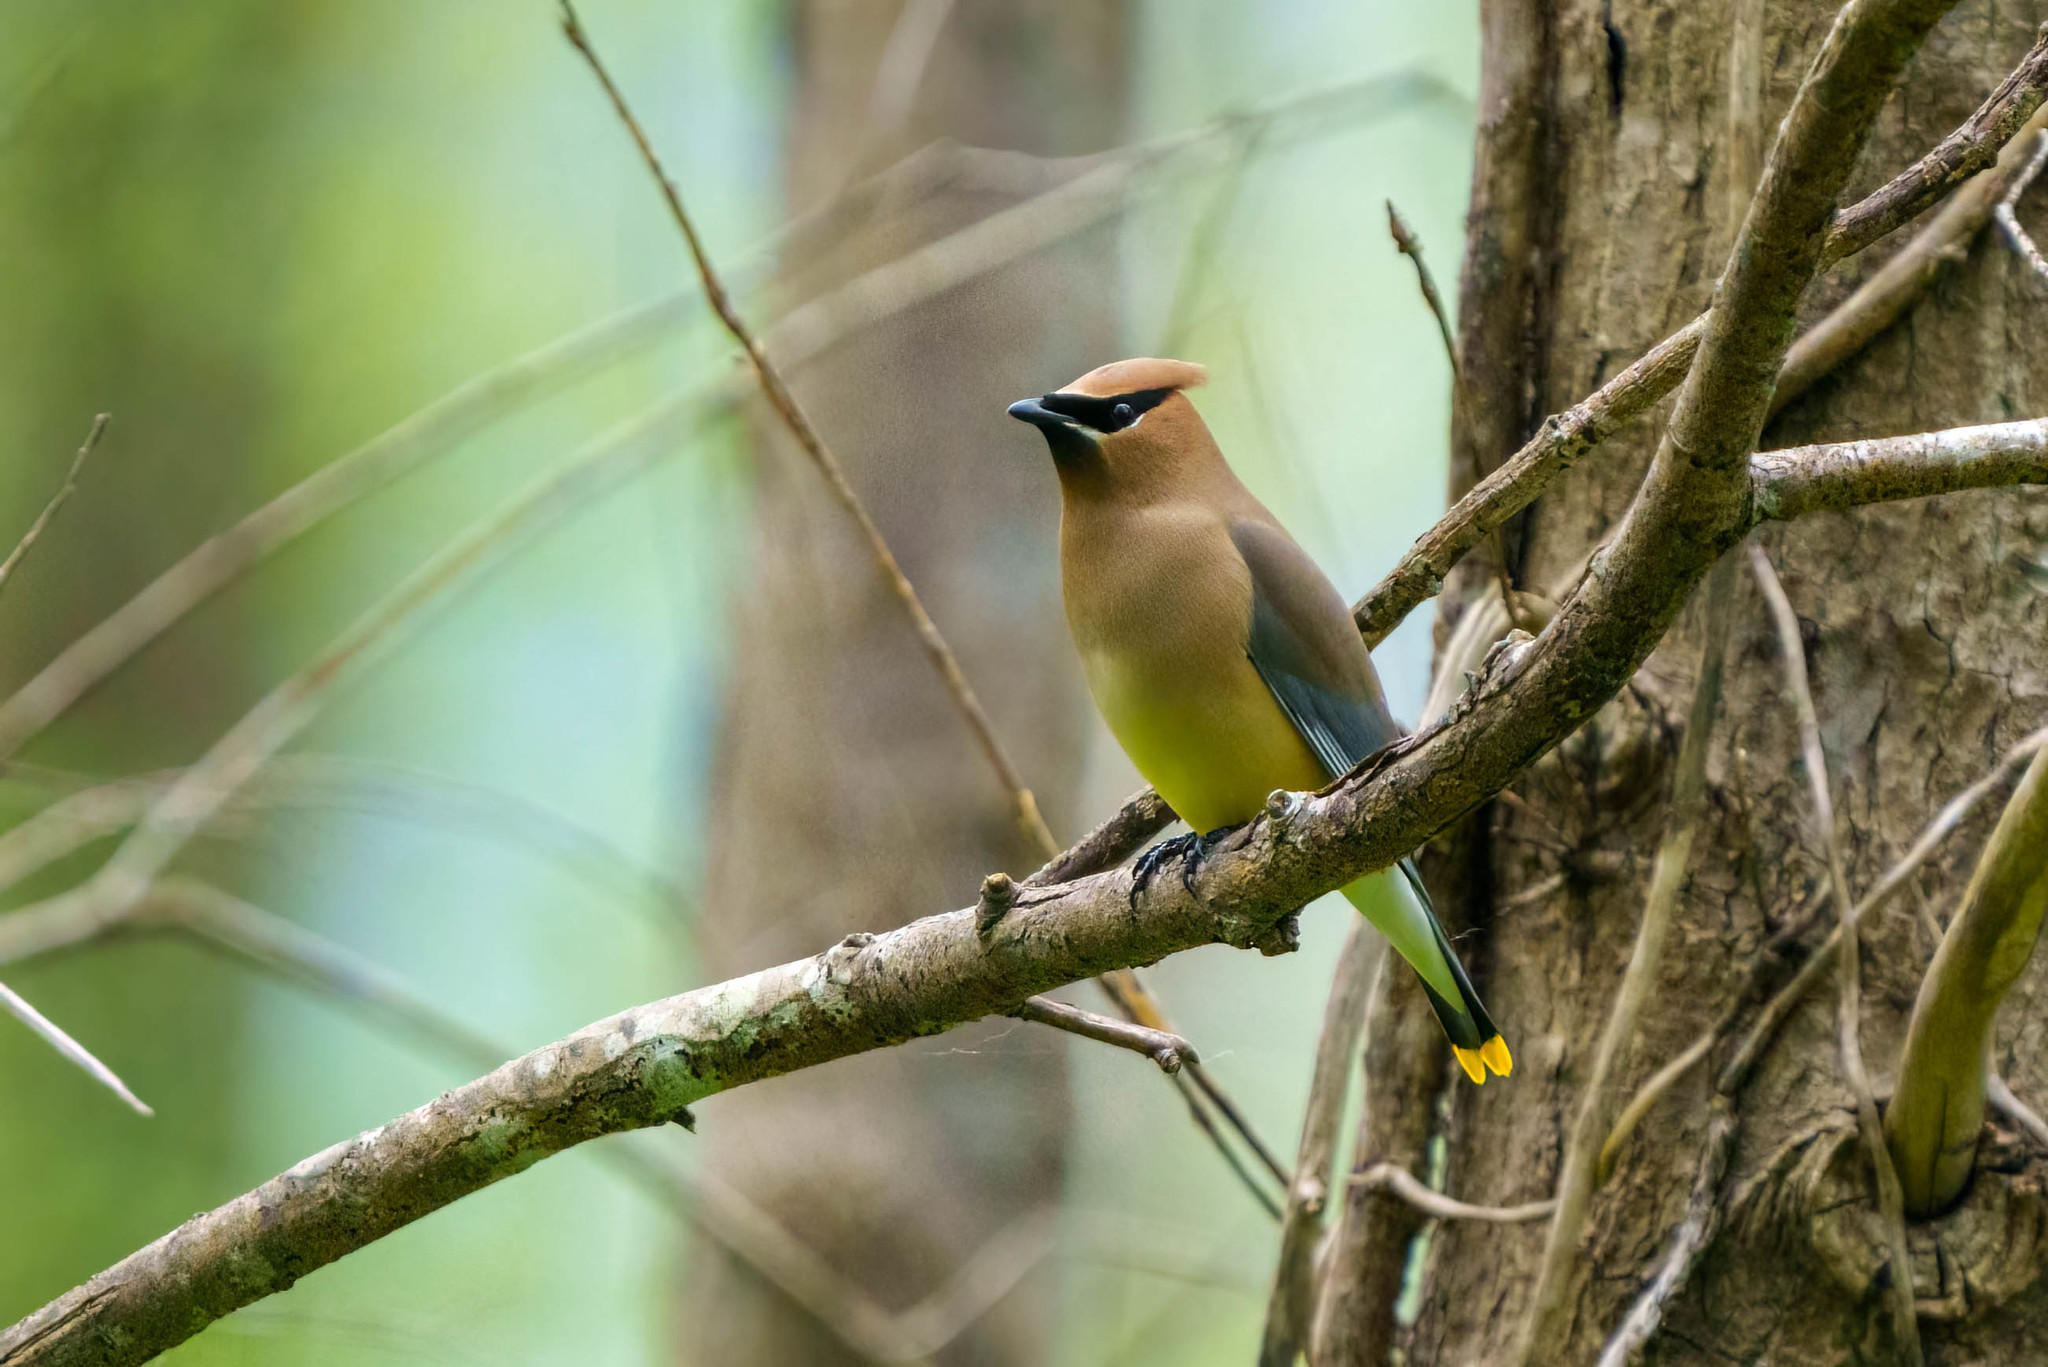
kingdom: Animalia
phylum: Chordata
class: Aves
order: Passeriformes
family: Bombycillidae
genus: Bombycilla
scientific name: Bombycilla cedrorum
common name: Cedar waxwing
